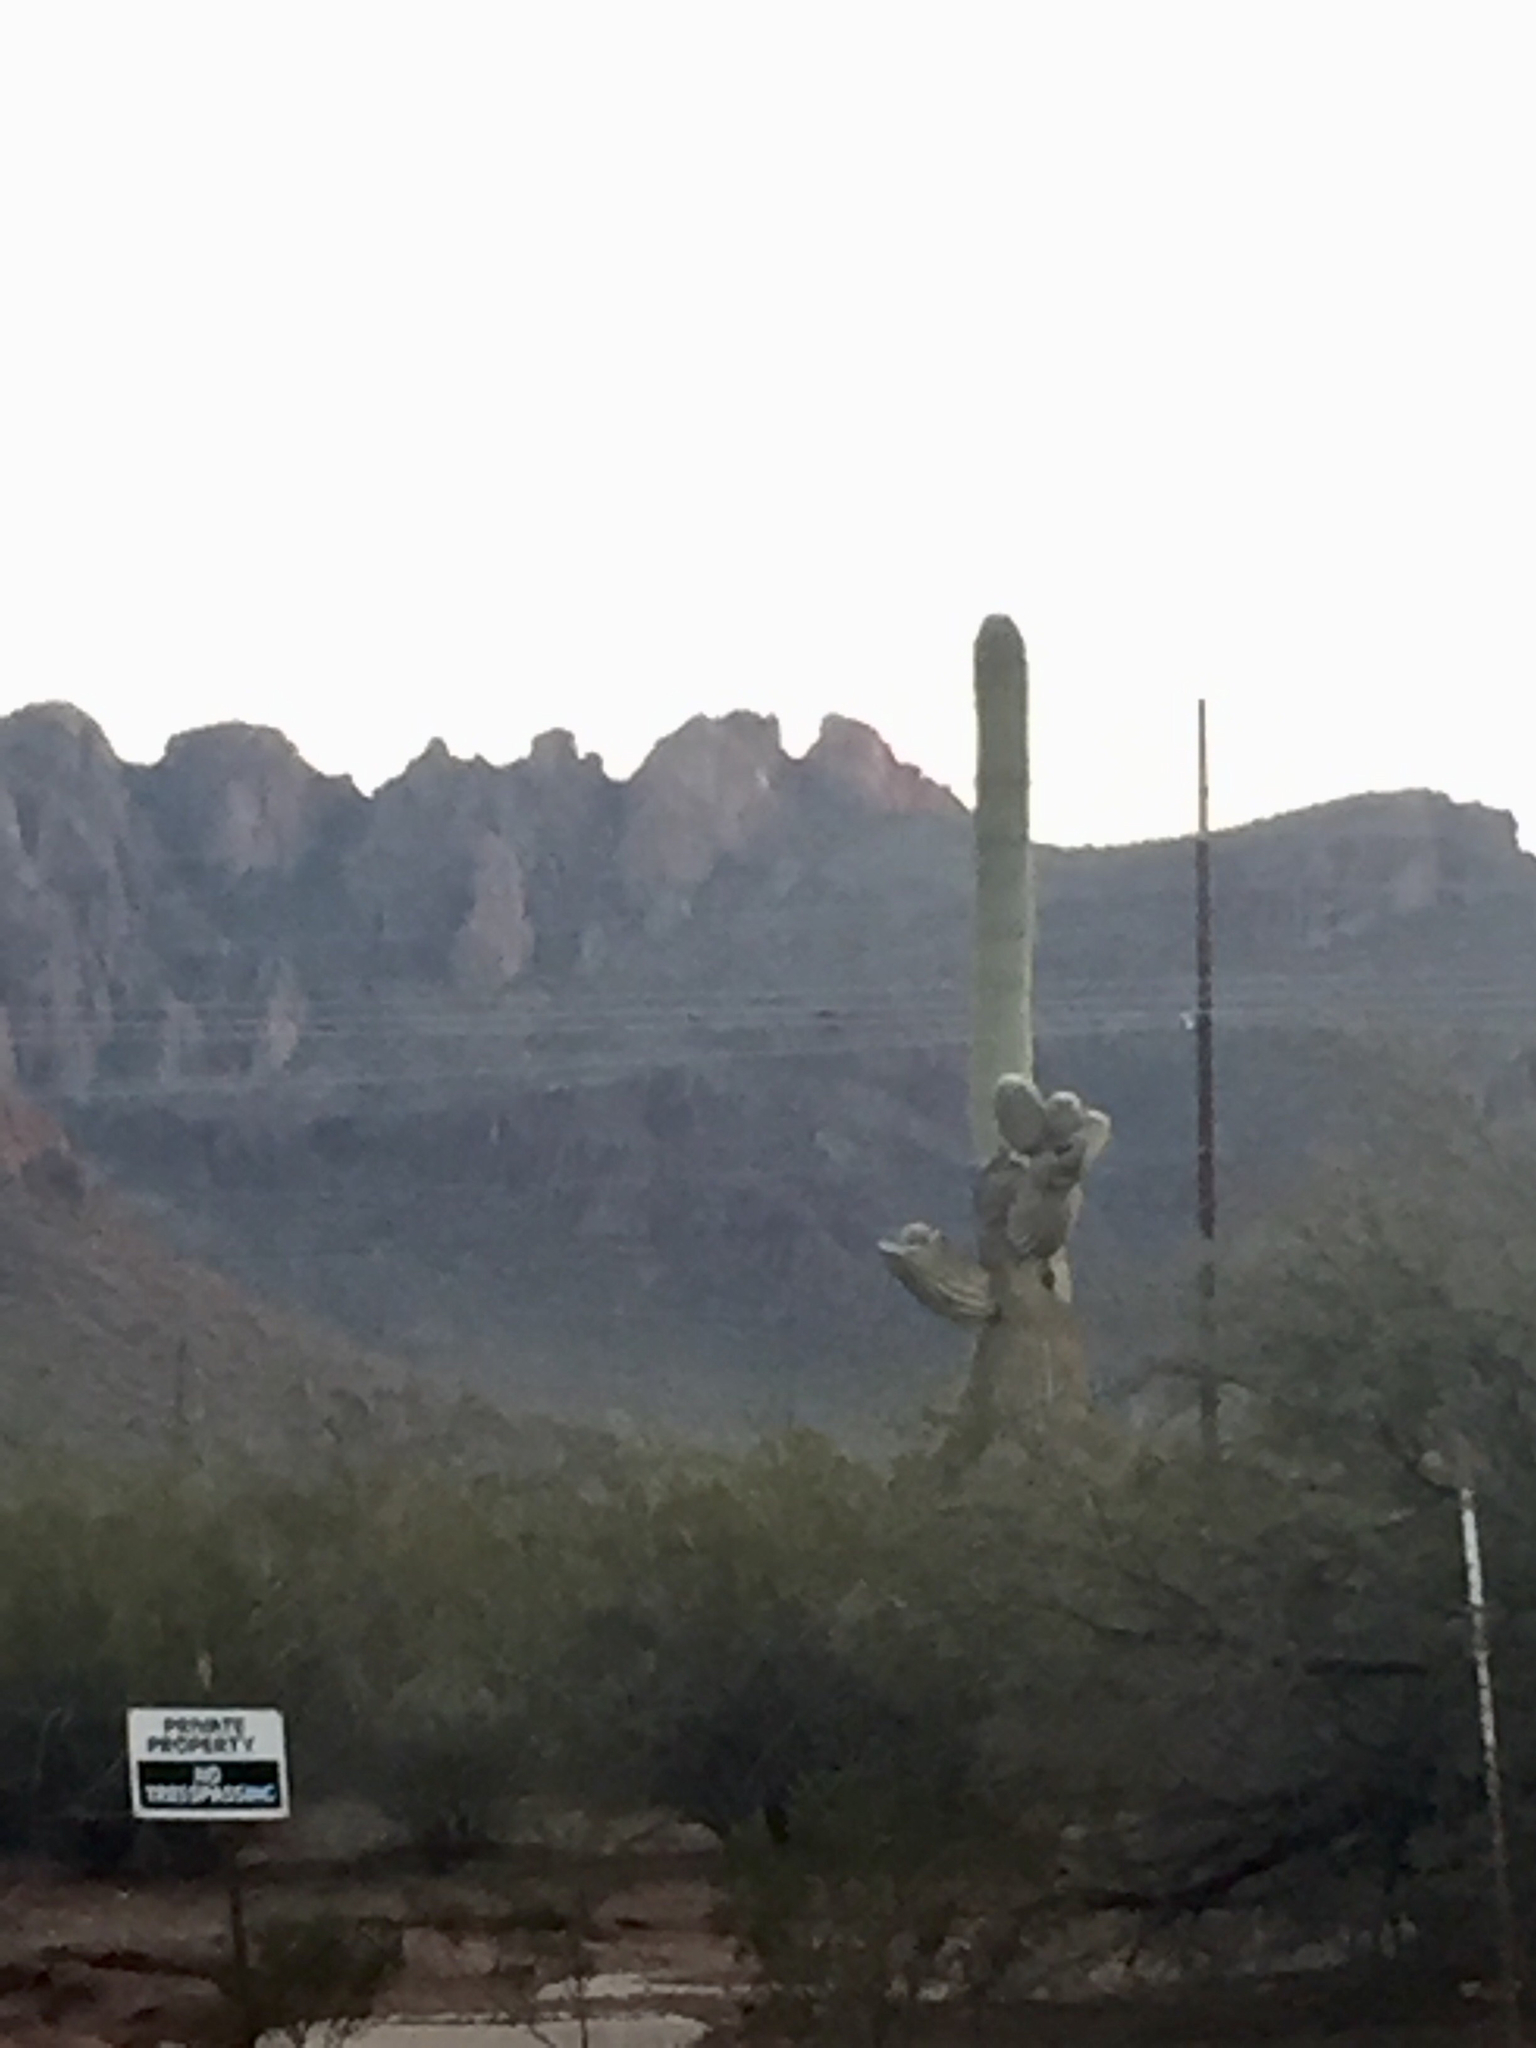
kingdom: Plantae
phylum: Tracheophyta
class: Magnoliopsida
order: Caryophyllales
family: Cactaceae
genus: Carnegiea
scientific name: Carnegiea gigantea
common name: Saguaro
